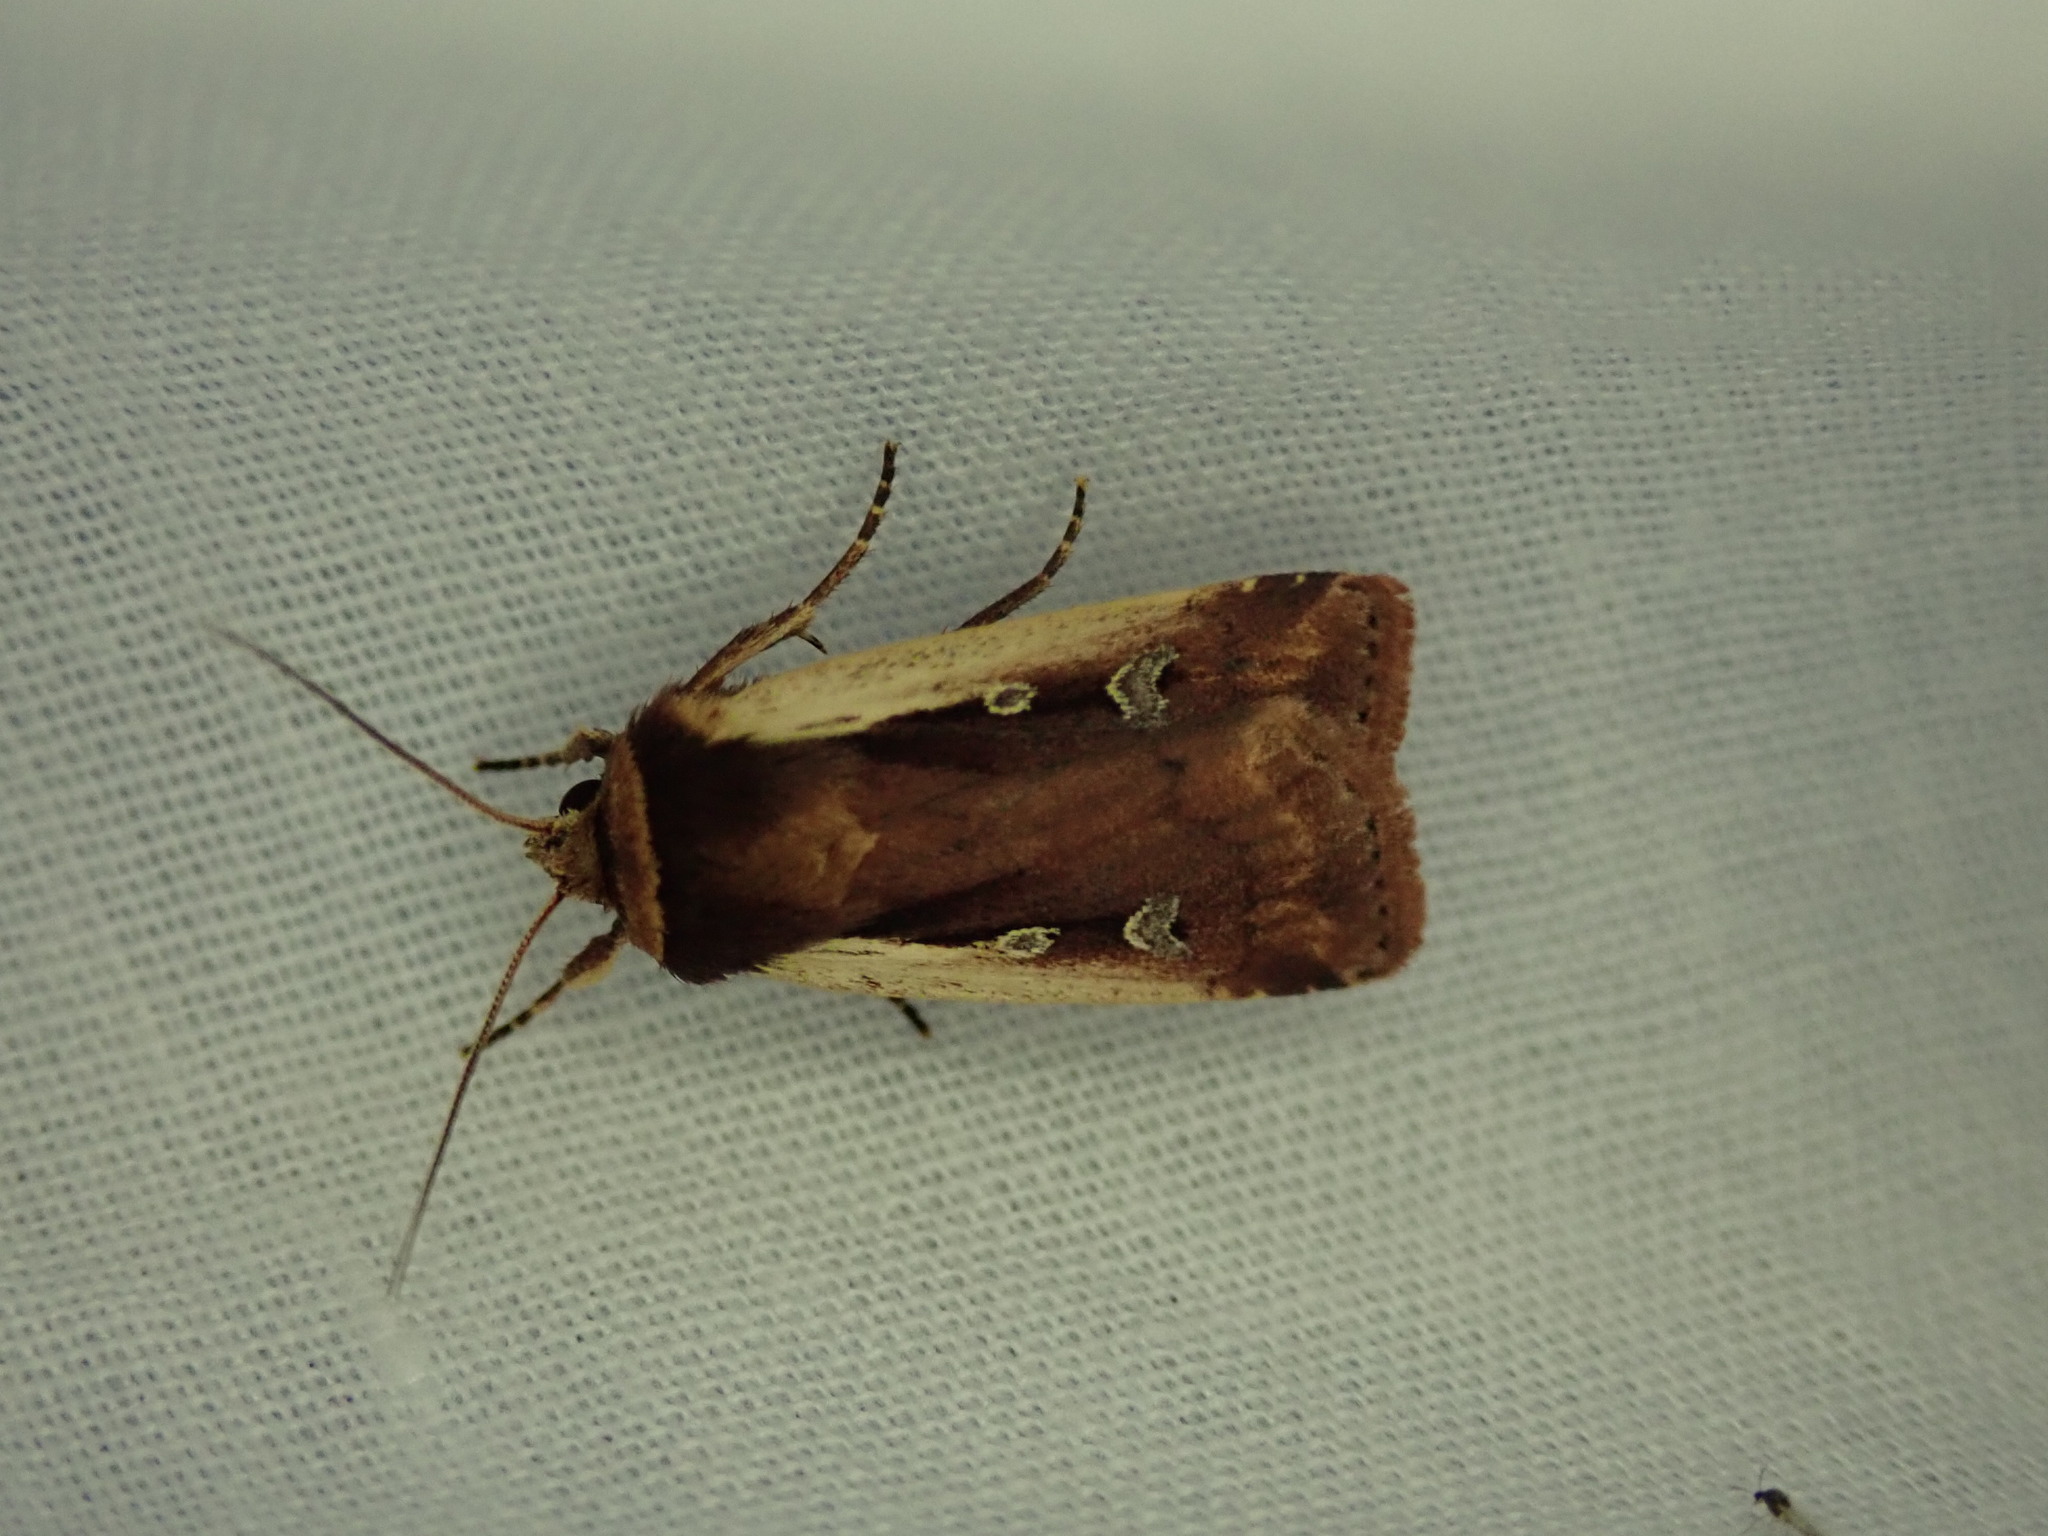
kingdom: Animalia
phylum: Arthropoda
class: Insecta
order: Lepidoptera
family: Noctuidae
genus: Ochropleura
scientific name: Ochropleura plecta
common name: Flame shoulder
